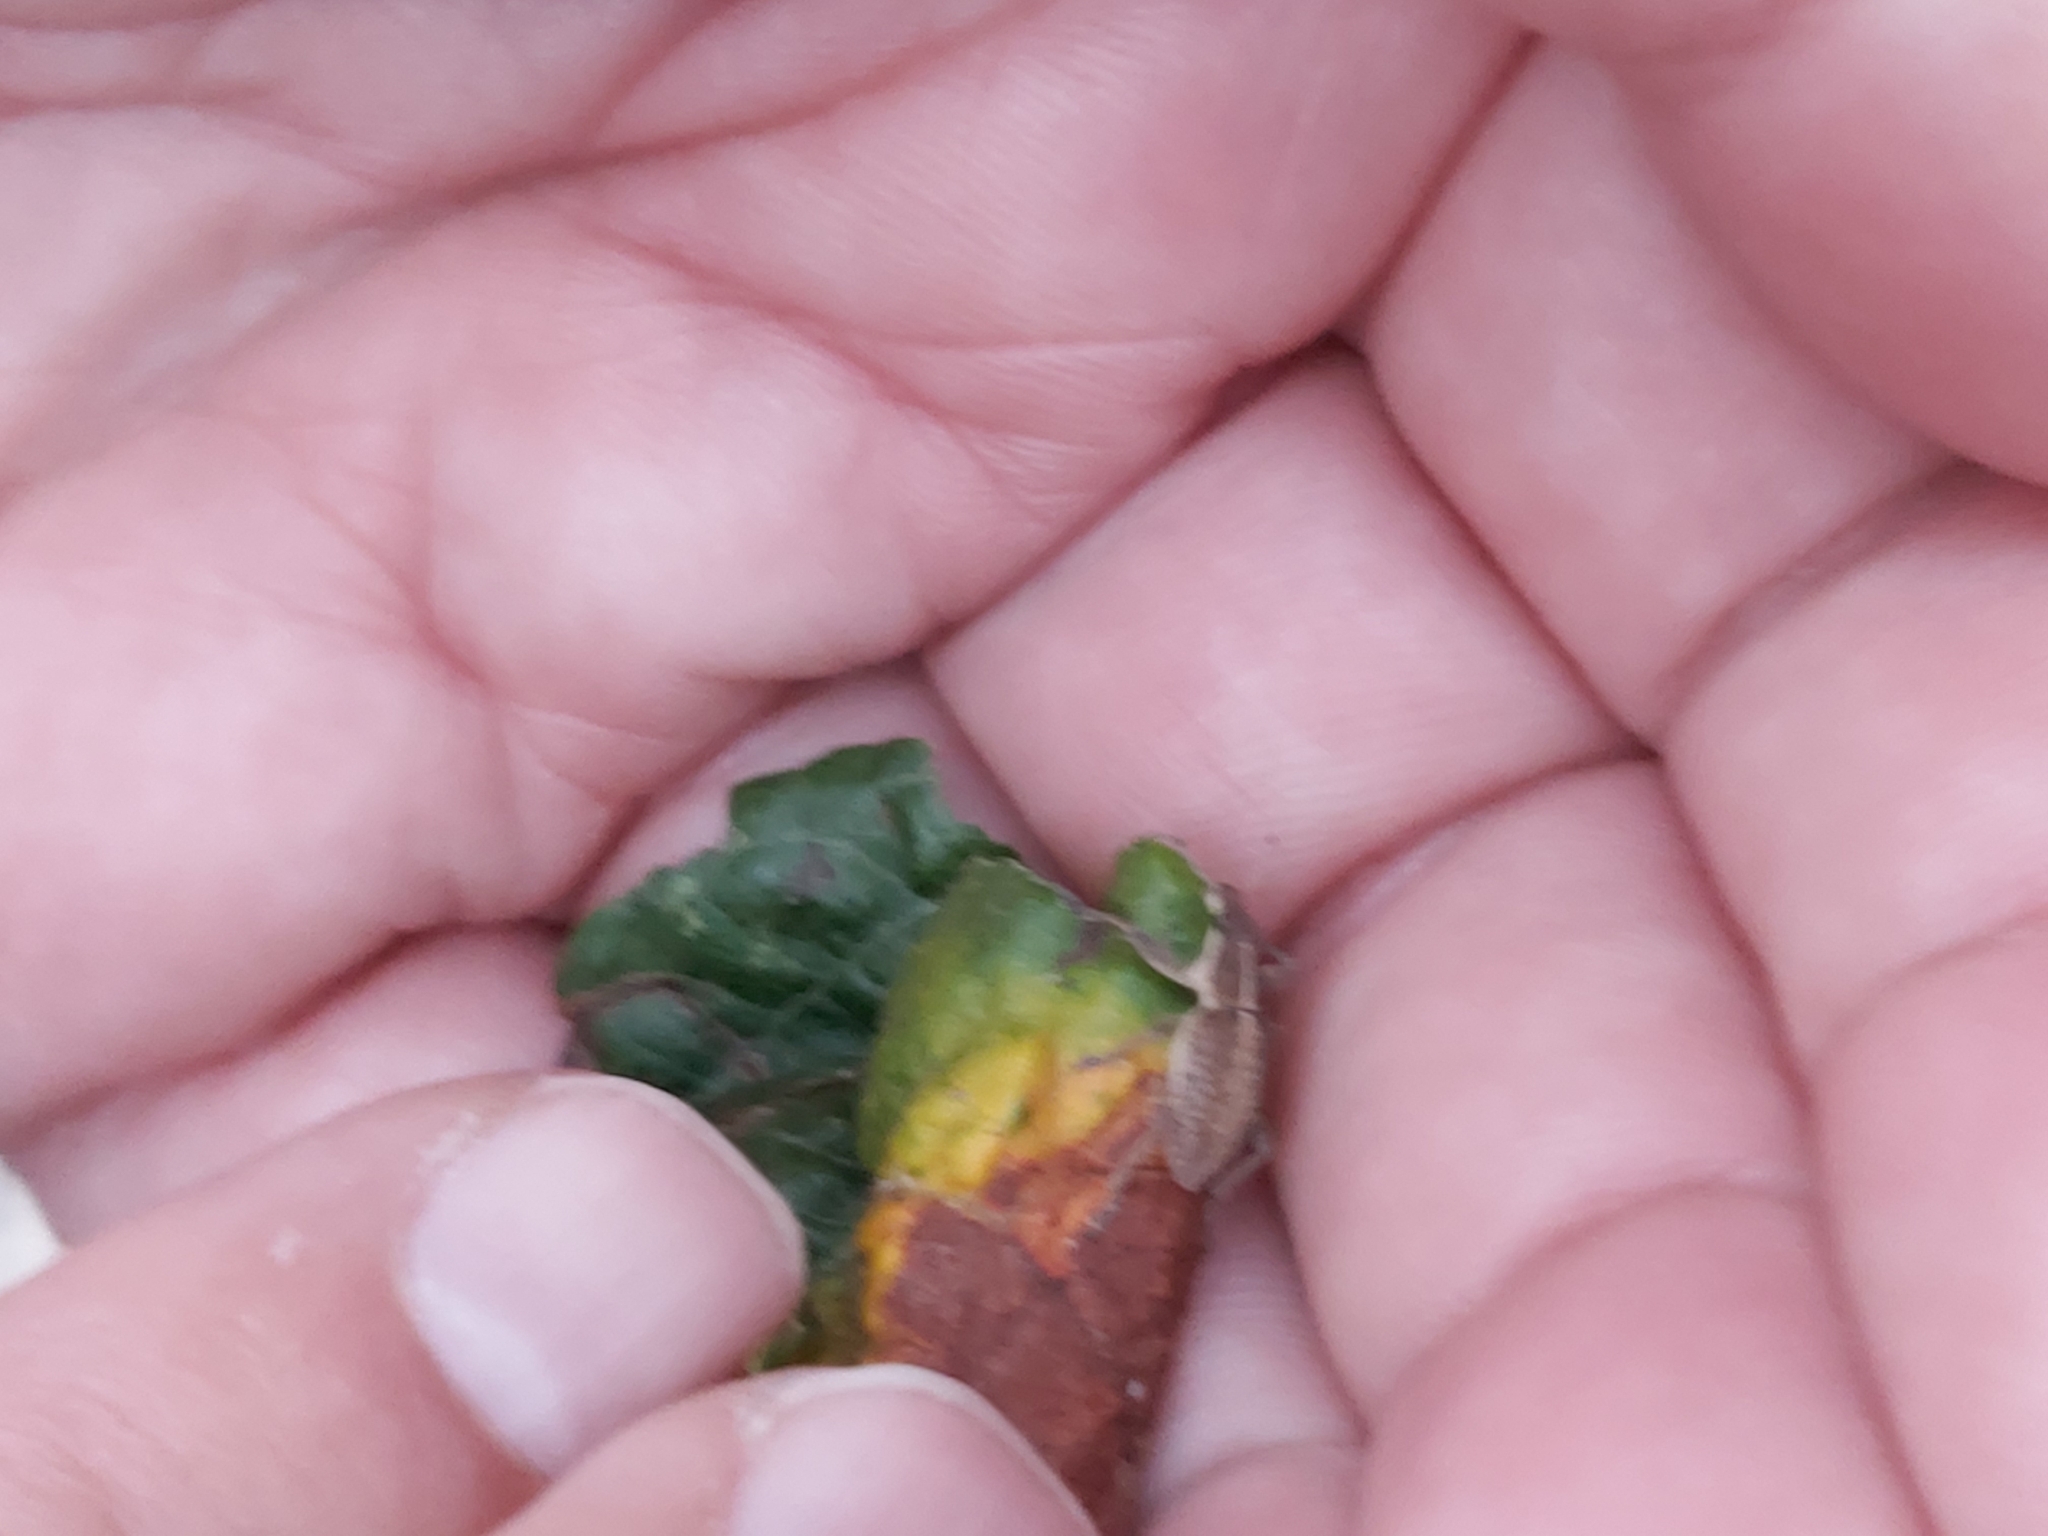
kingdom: Animalia
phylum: Arthropoda
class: Insecta
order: Coleoptera
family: Curculionidae
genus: Charagmus
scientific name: Charagmus gressorius
